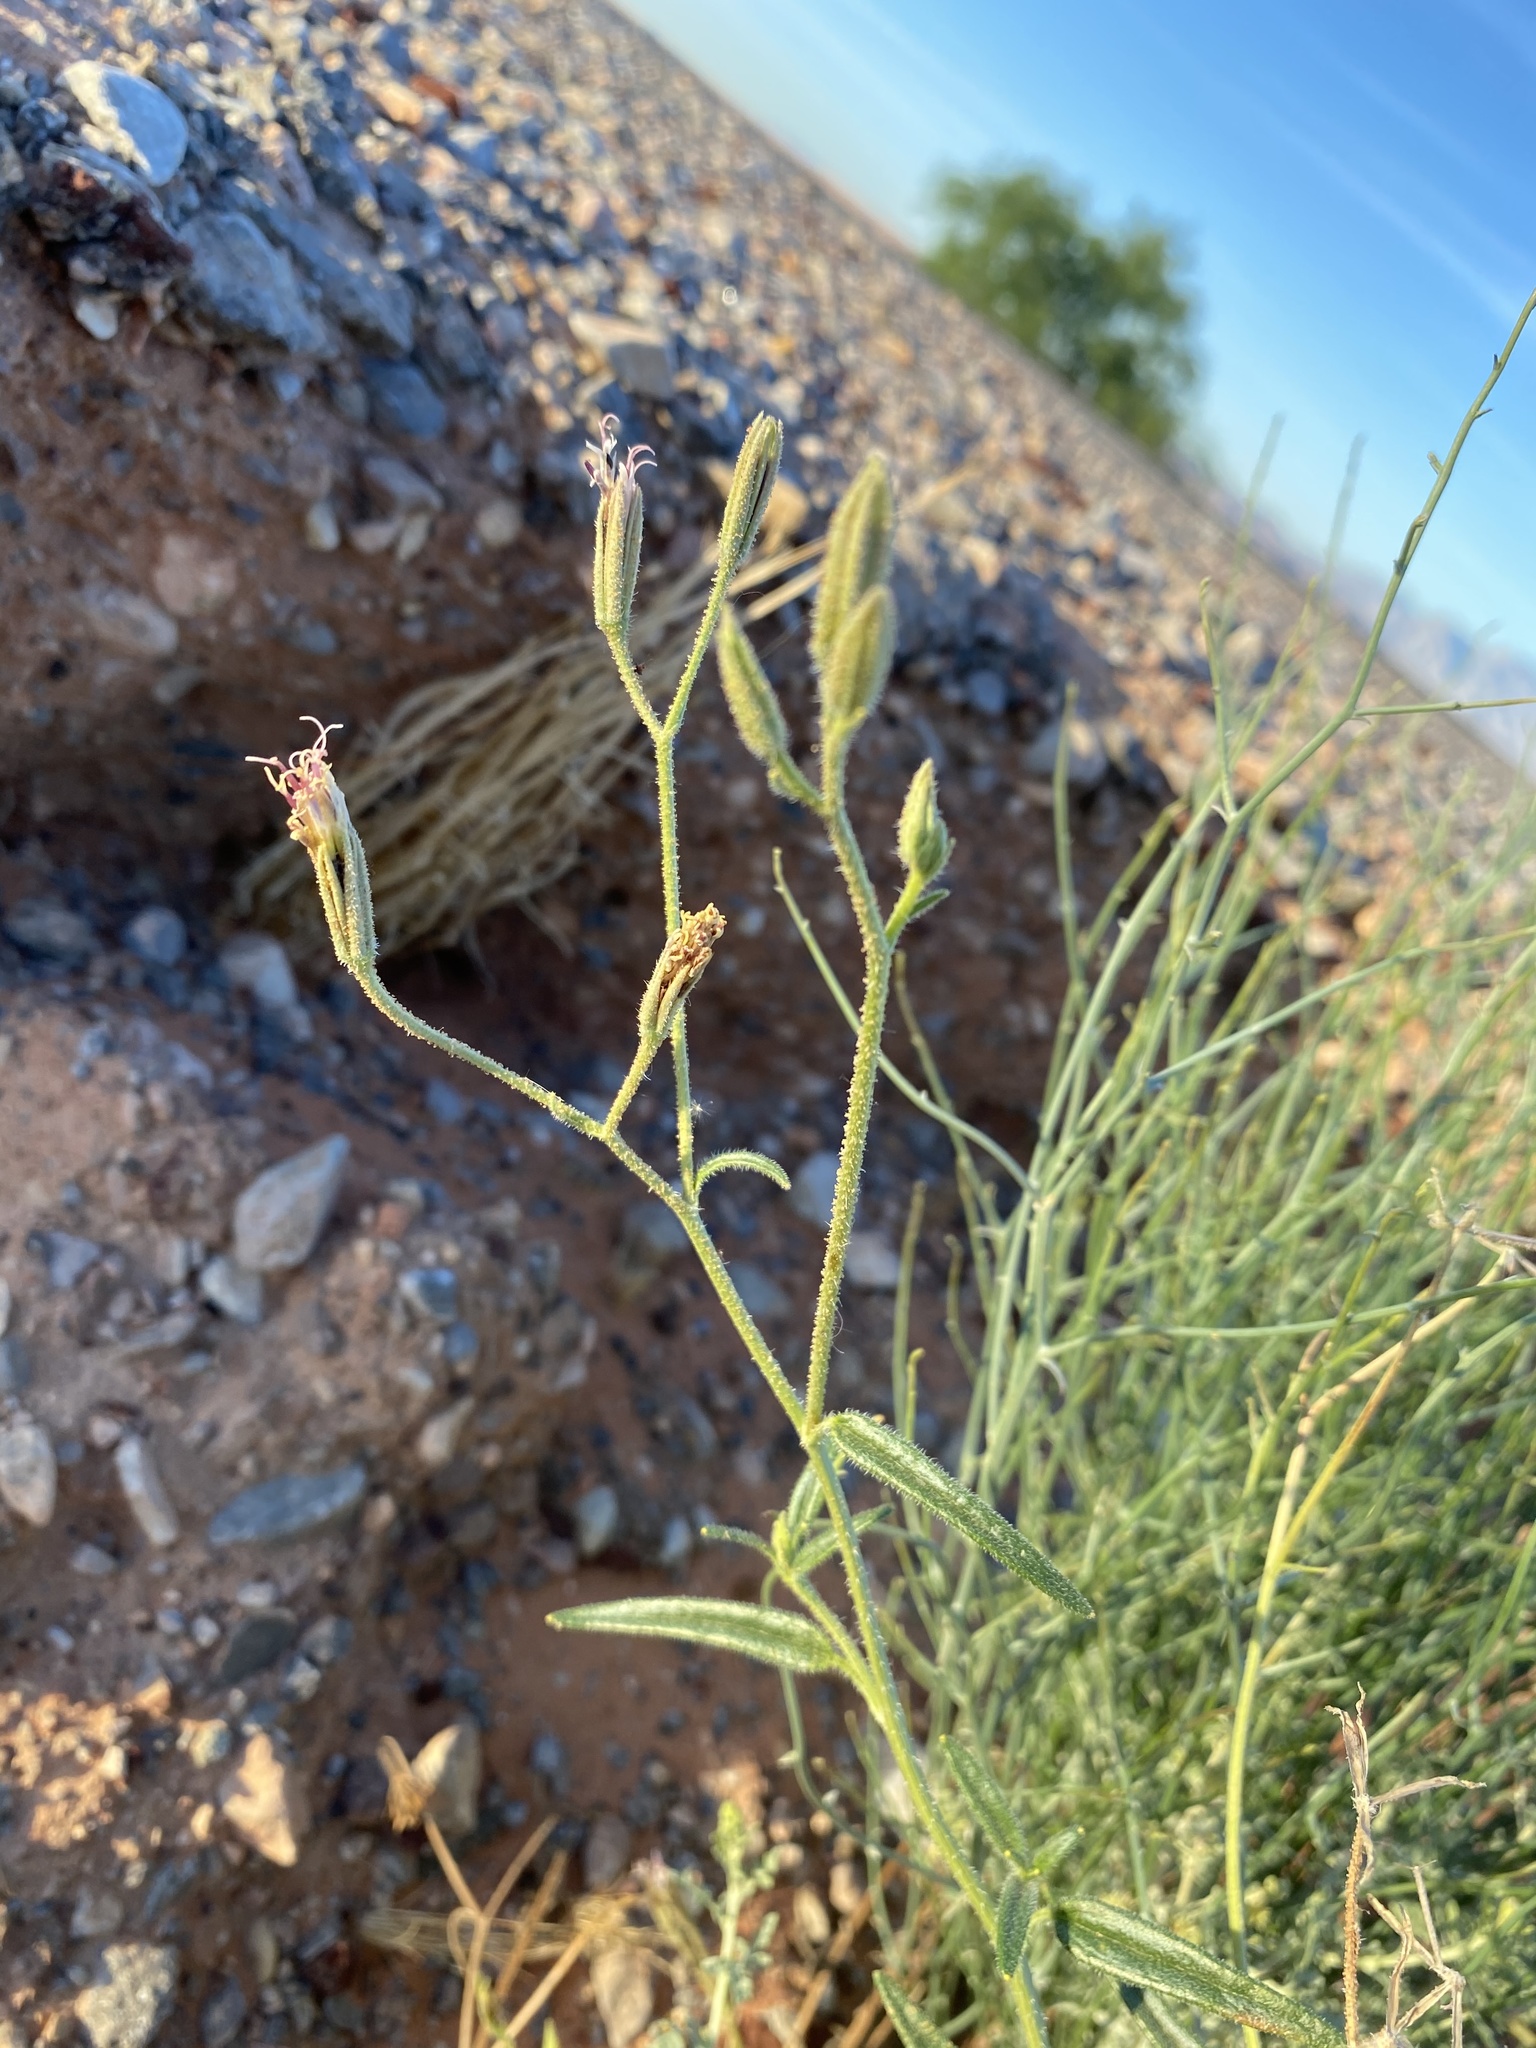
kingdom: Plantae
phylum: Tracheophyta
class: Magnoliopsida
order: Asterales
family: Asteraceae
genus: Palafoxia
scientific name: Palafoxia arida
